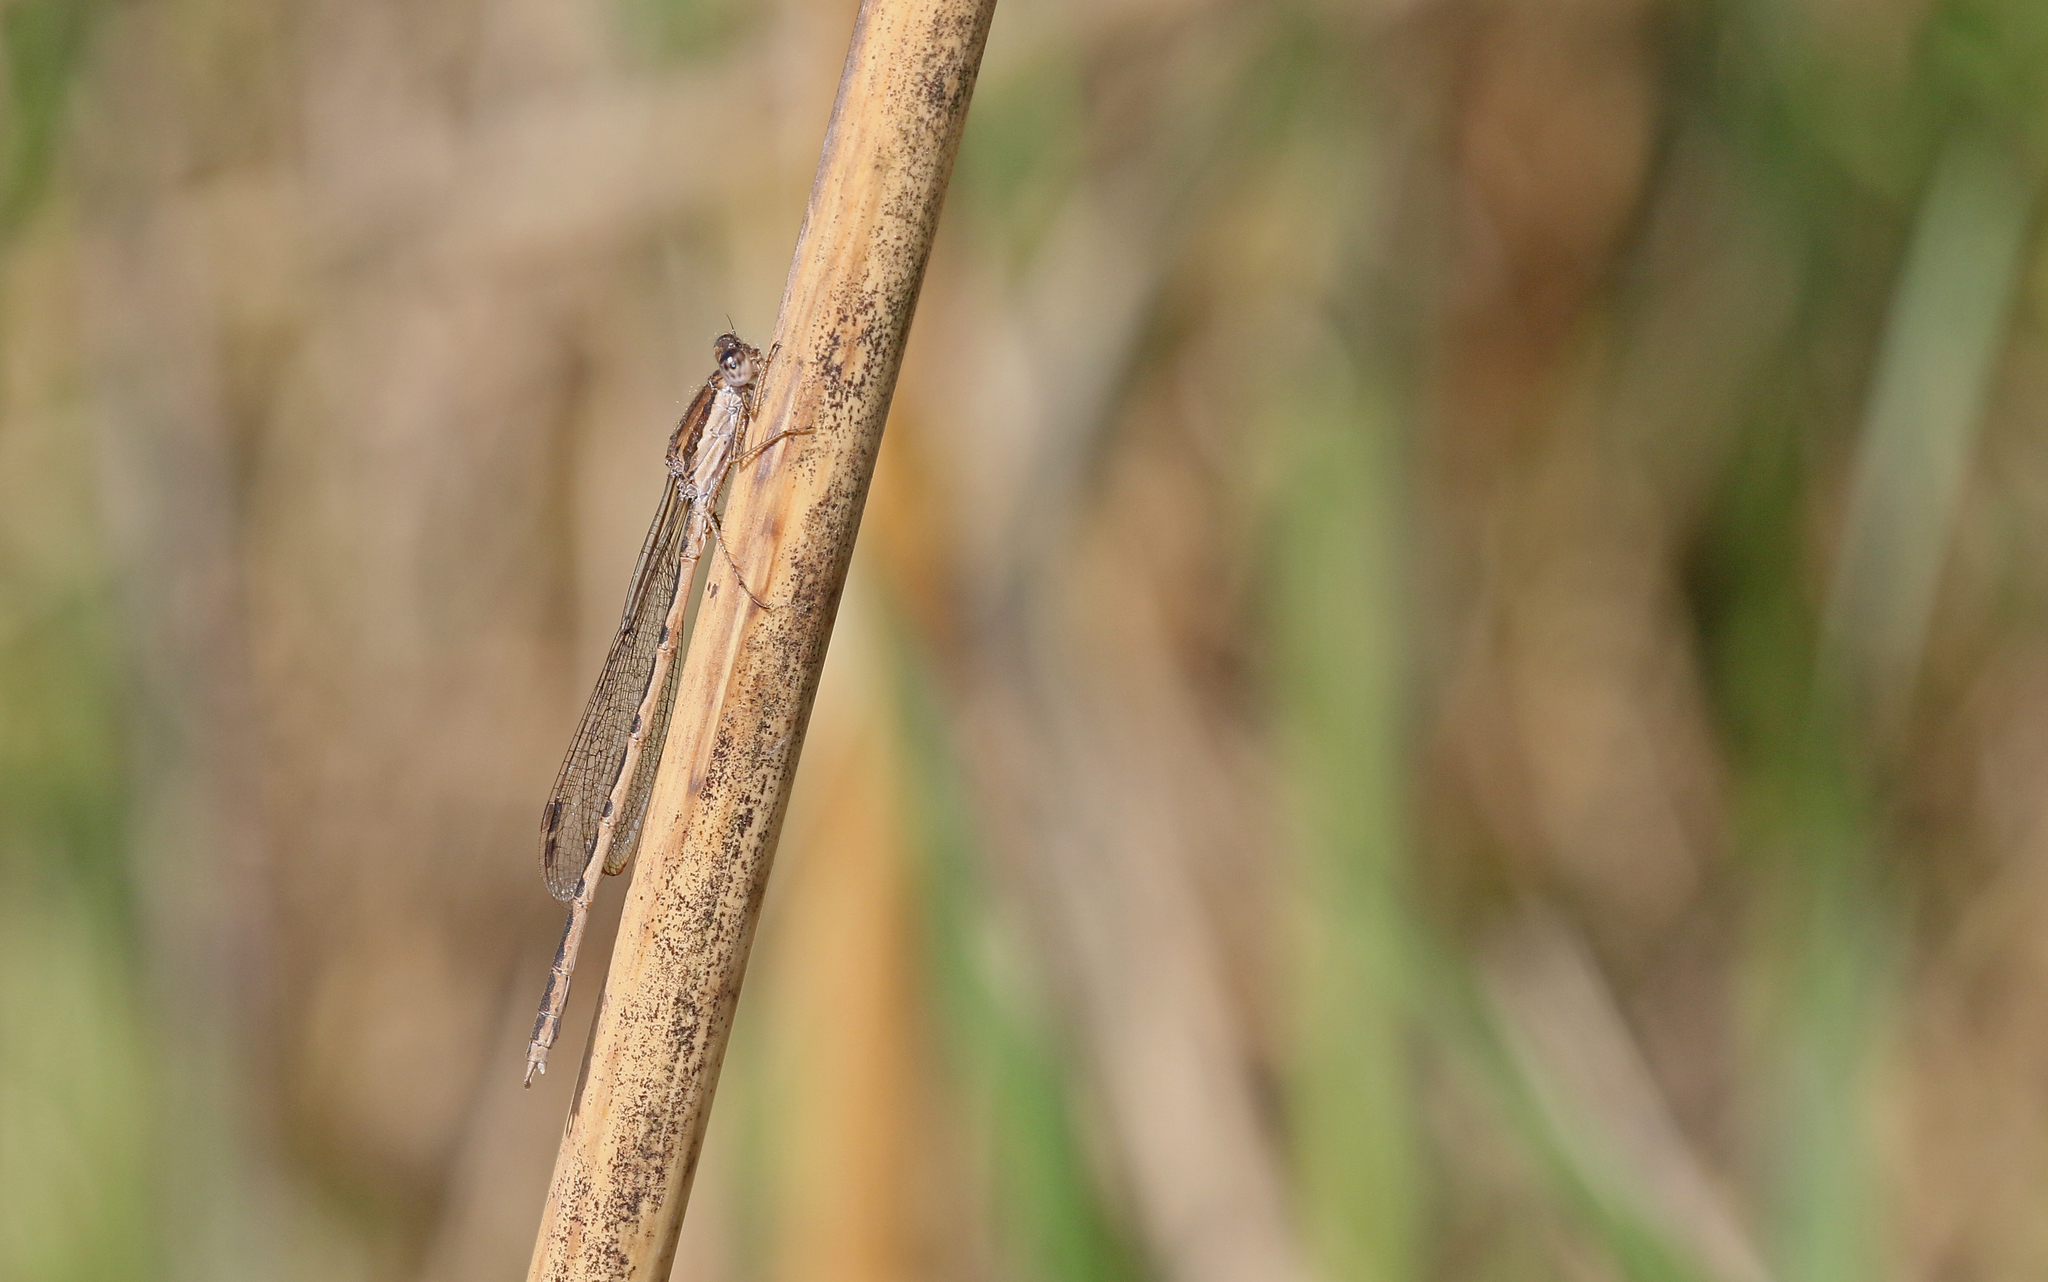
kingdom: Animalia
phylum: Arthropoda
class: Insecta
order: Odonata
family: Lestidae
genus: Sympecma
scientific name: Sympecma fusca
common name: Common winter damsel
